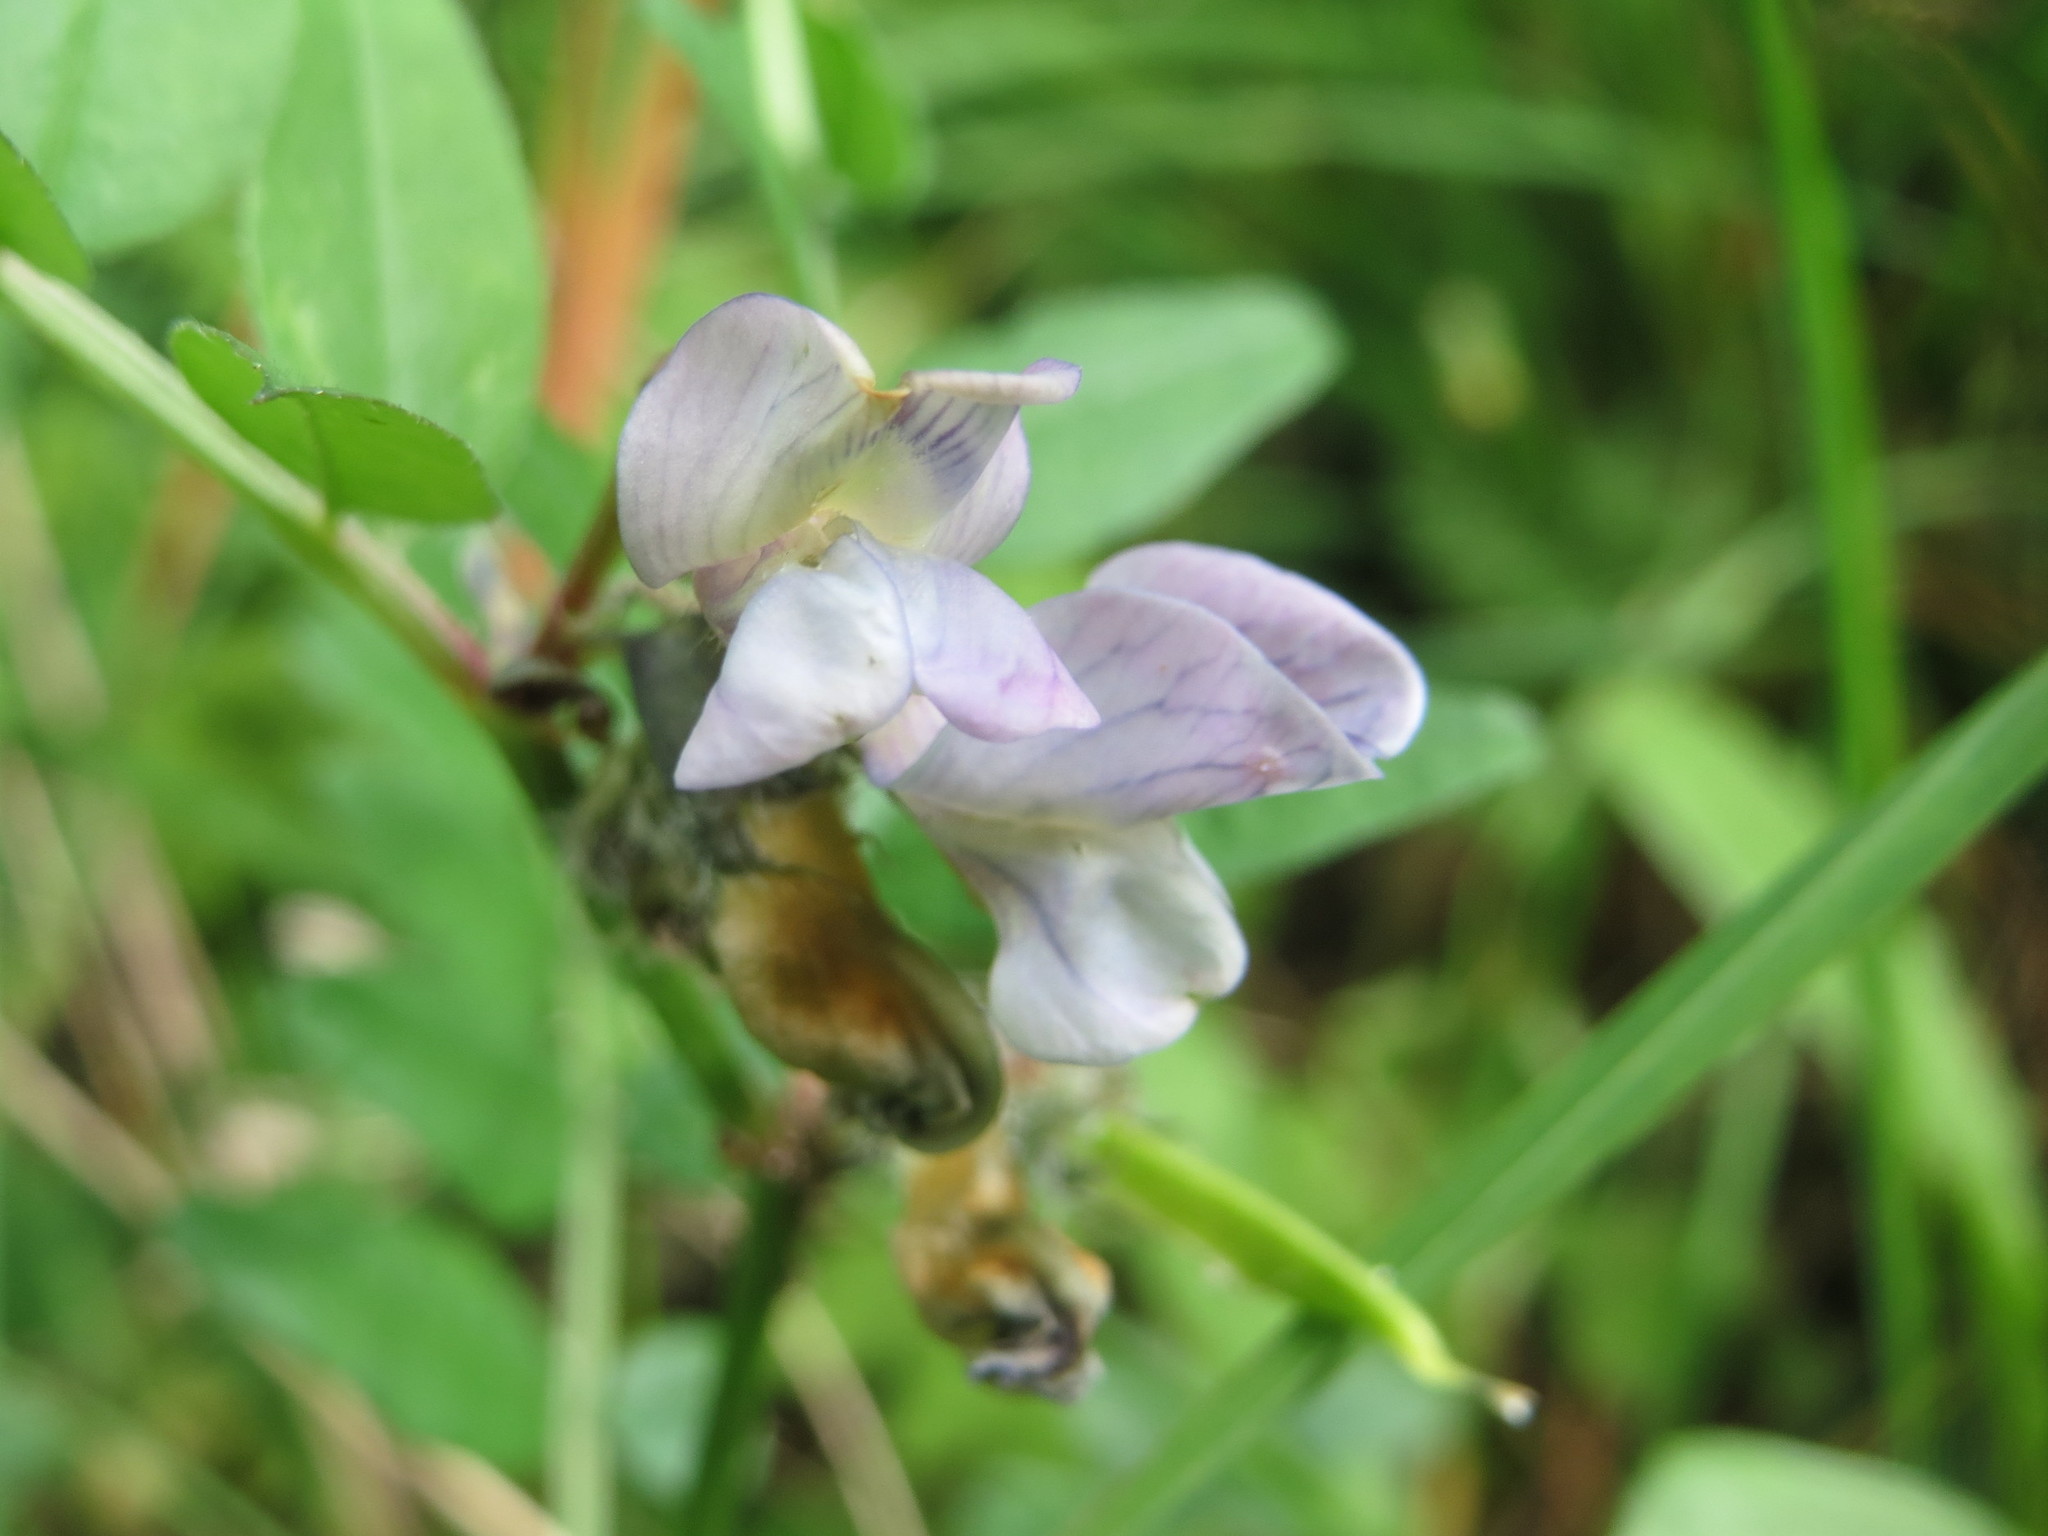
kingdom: Plantae
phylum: Tracheophyta
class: Magnoliopsida
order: Fabales
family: Fabaceae
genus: Vicia
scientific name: Vicia sepium
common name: Bush vetch
